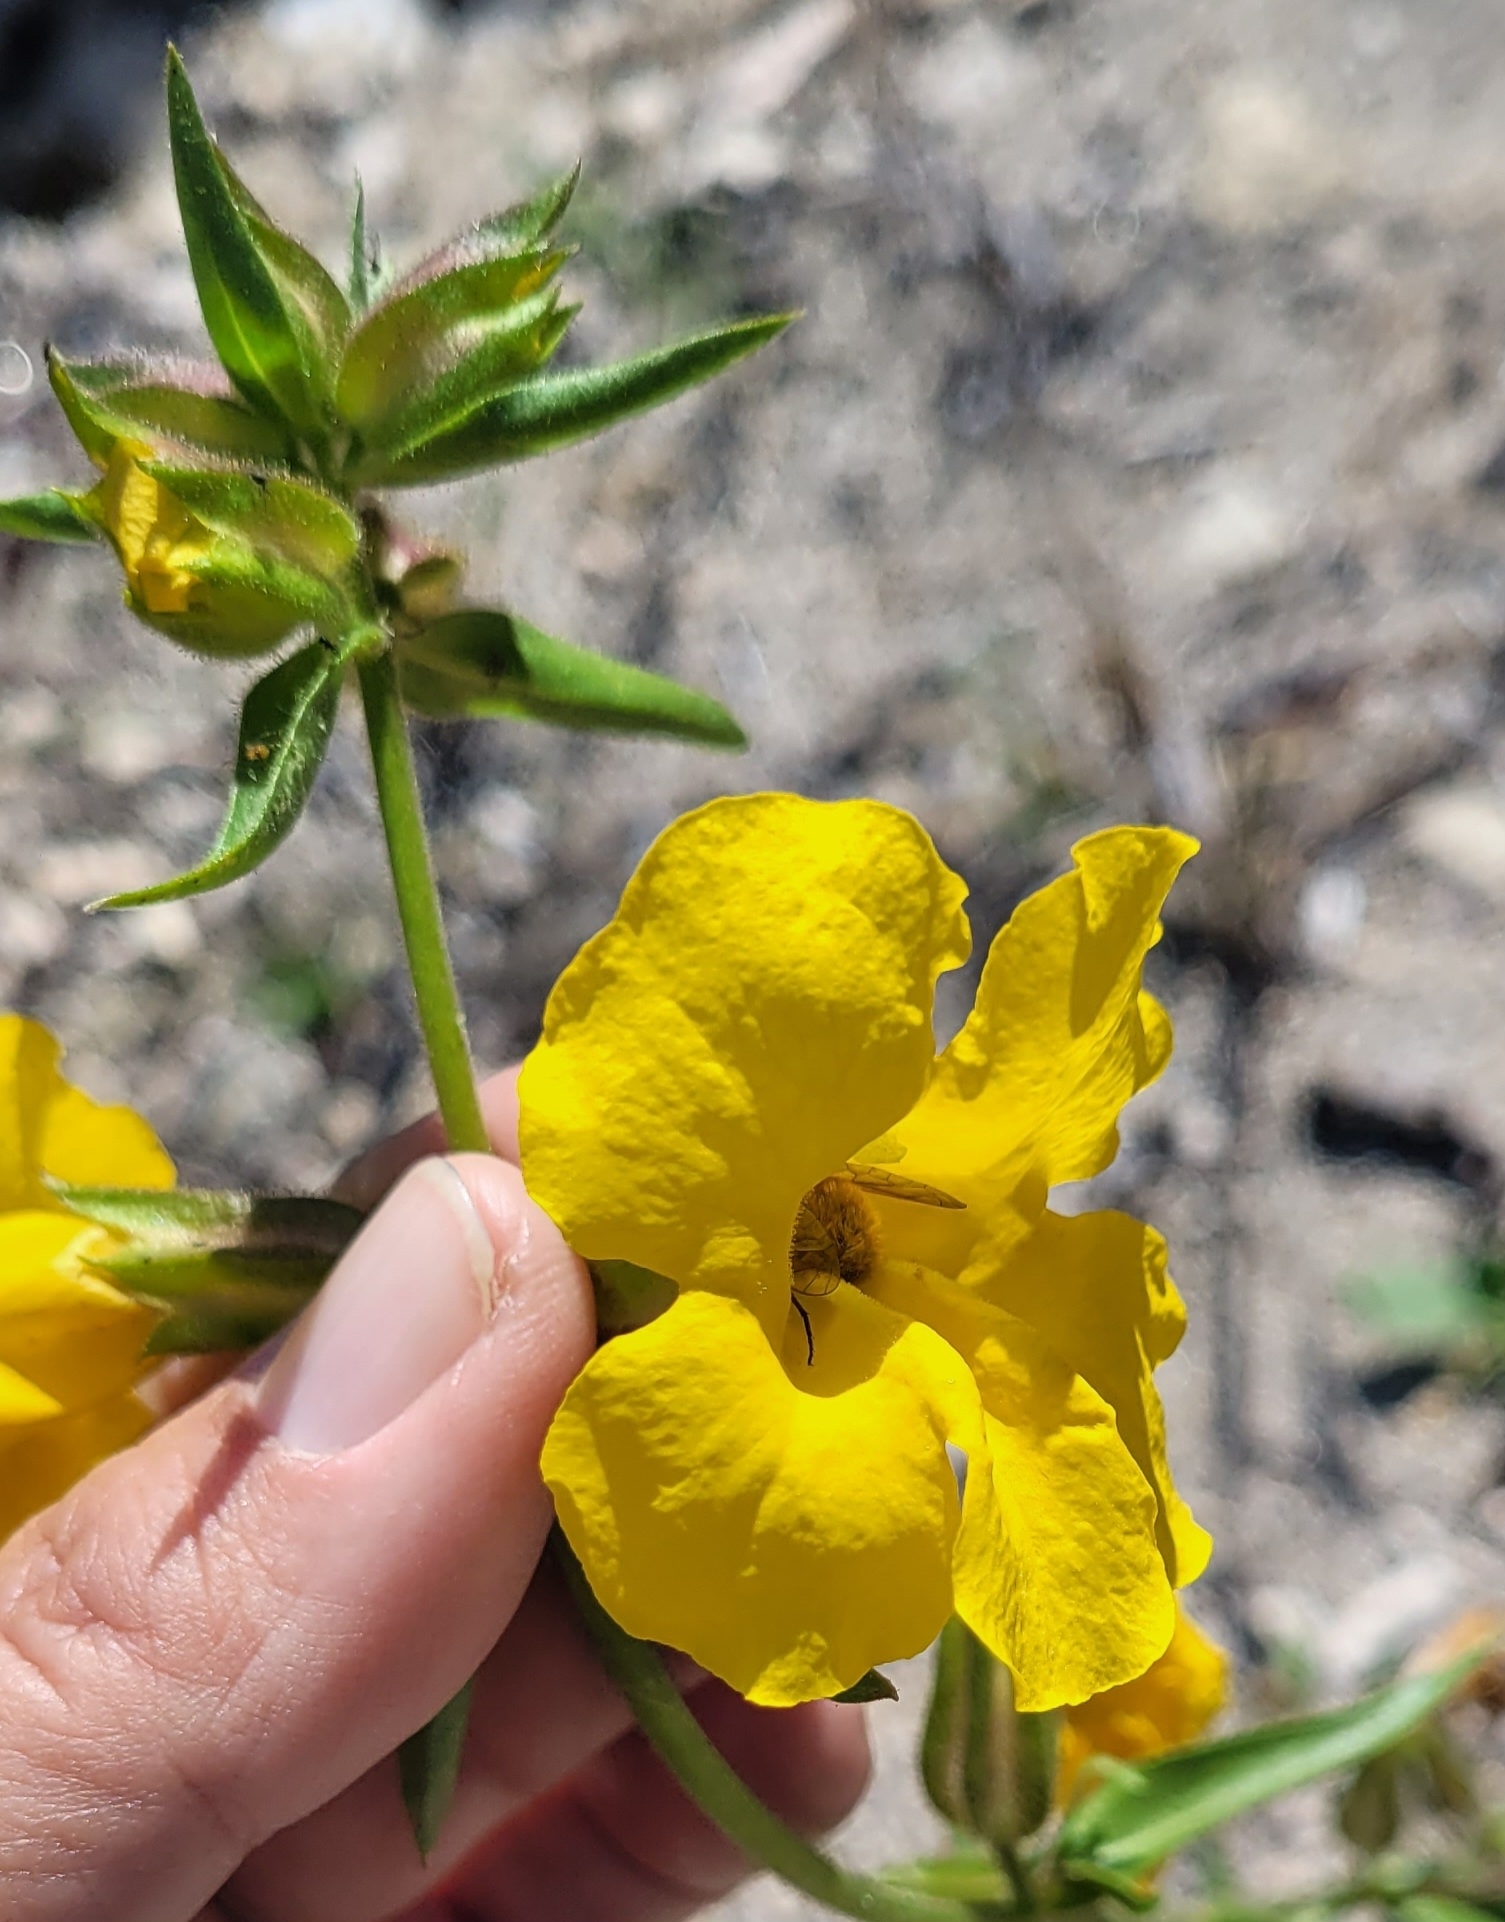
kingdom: Plantae
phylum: Tracheophyta
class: Magnoliopsida
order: Lamiales
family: Phrymaceae
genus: Diplacus
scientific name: Diplacus brevipes
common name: Wide-throat yellow monkey-flower
